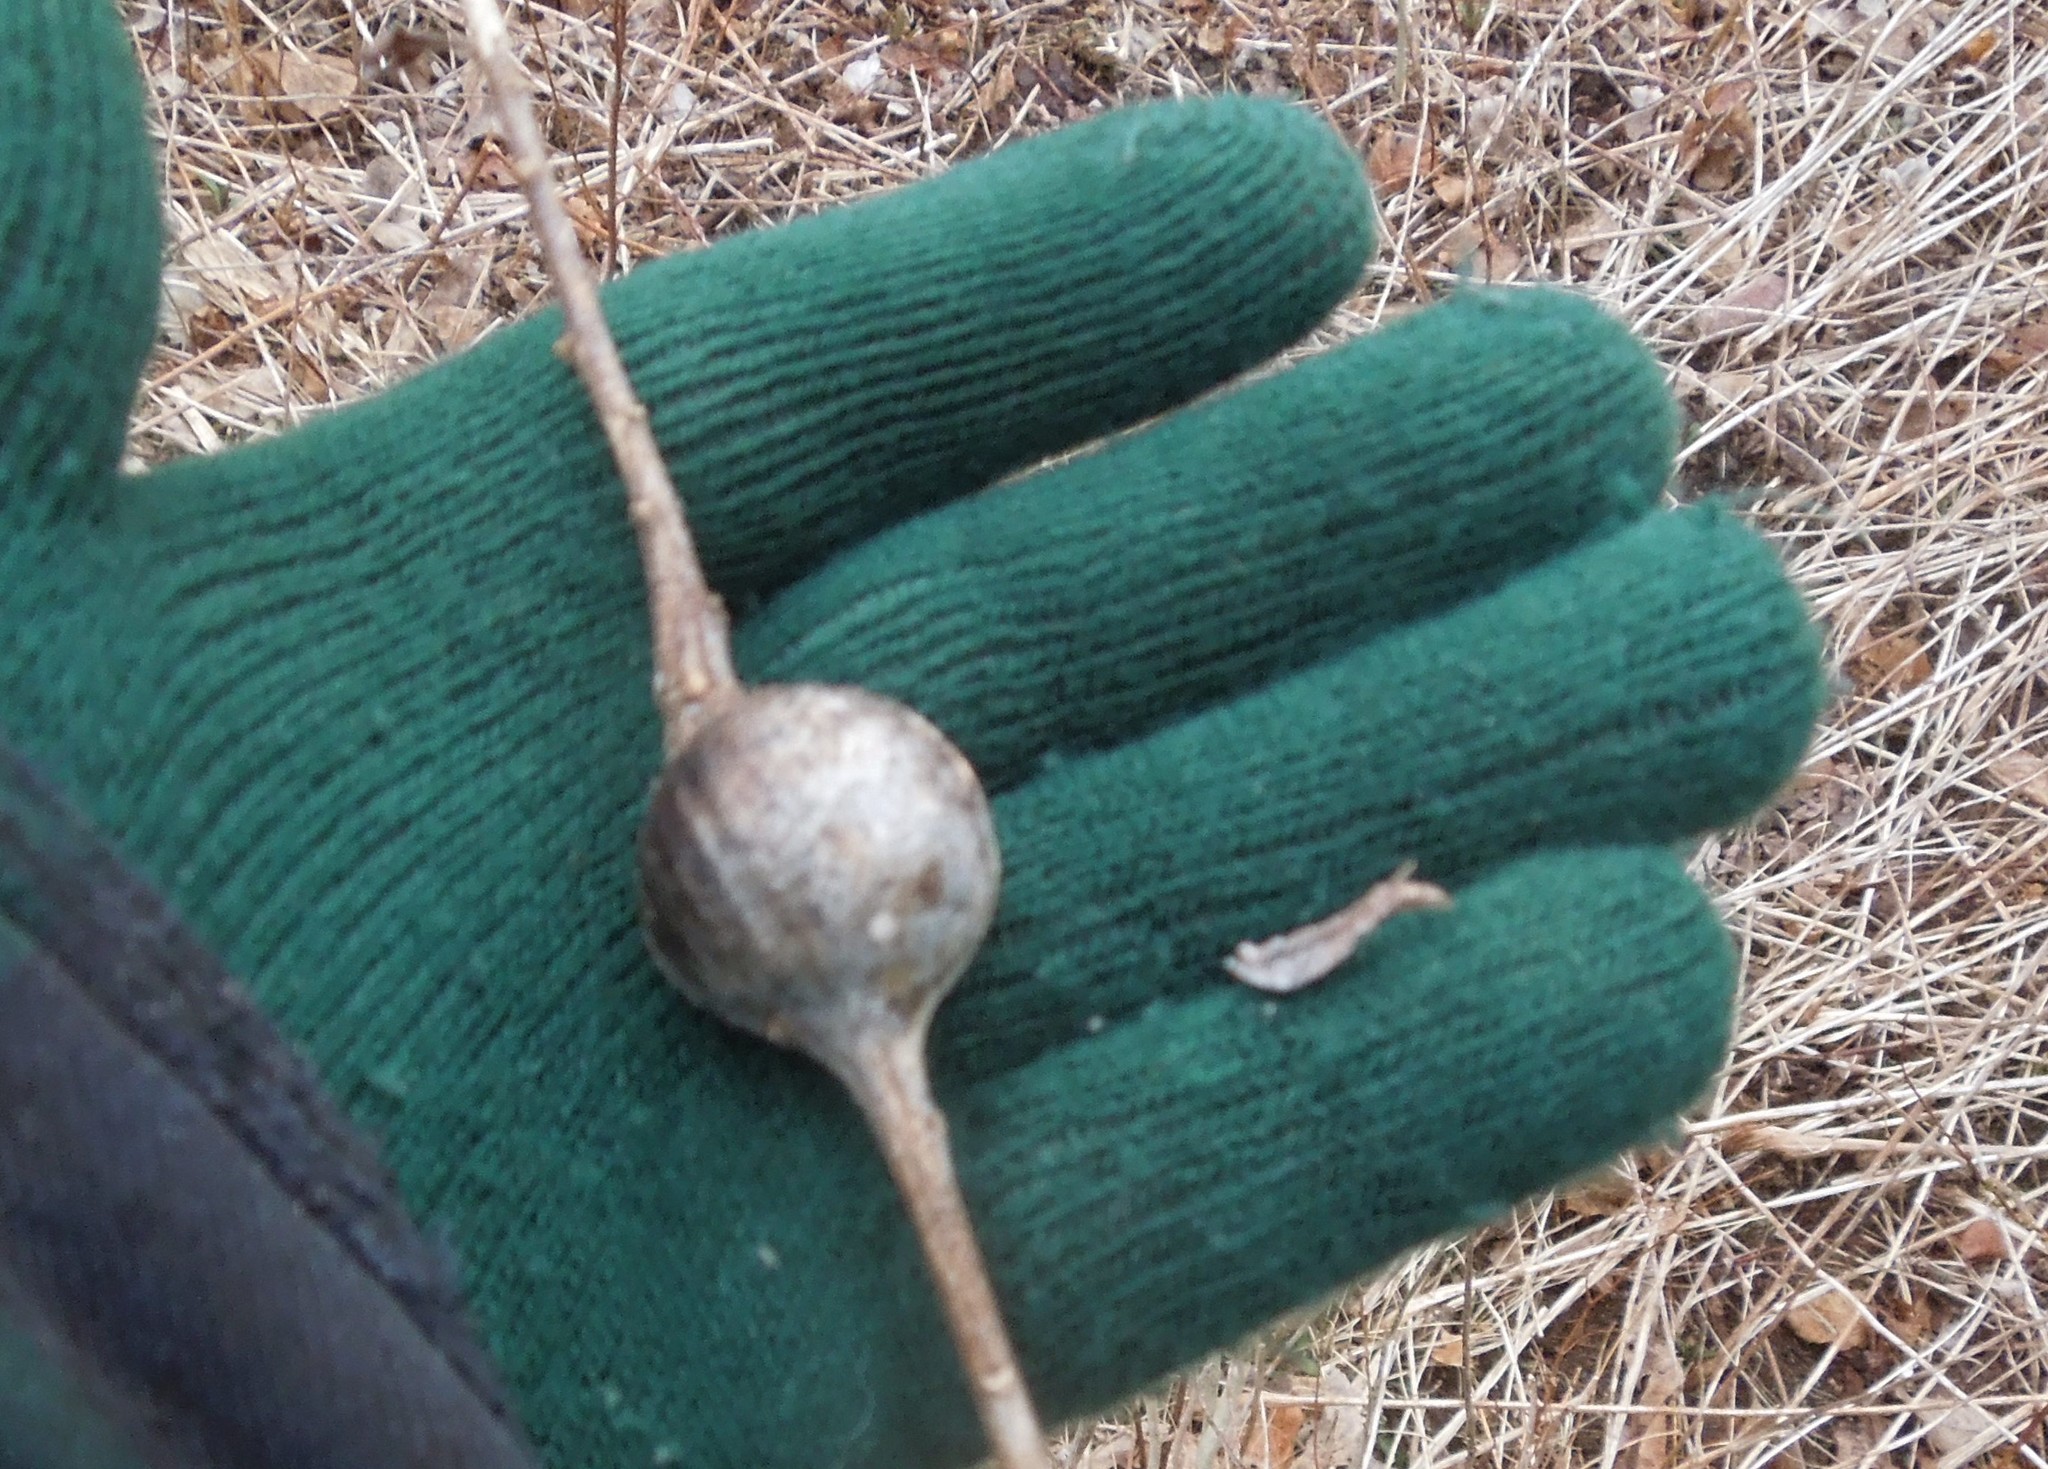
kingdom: Animalia
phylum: Arthropoda
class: Insecta
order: Diptera
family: Tephritidae
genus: Eurosta
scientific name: Eurosta solidaginis
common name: Goldenrod gall fly
